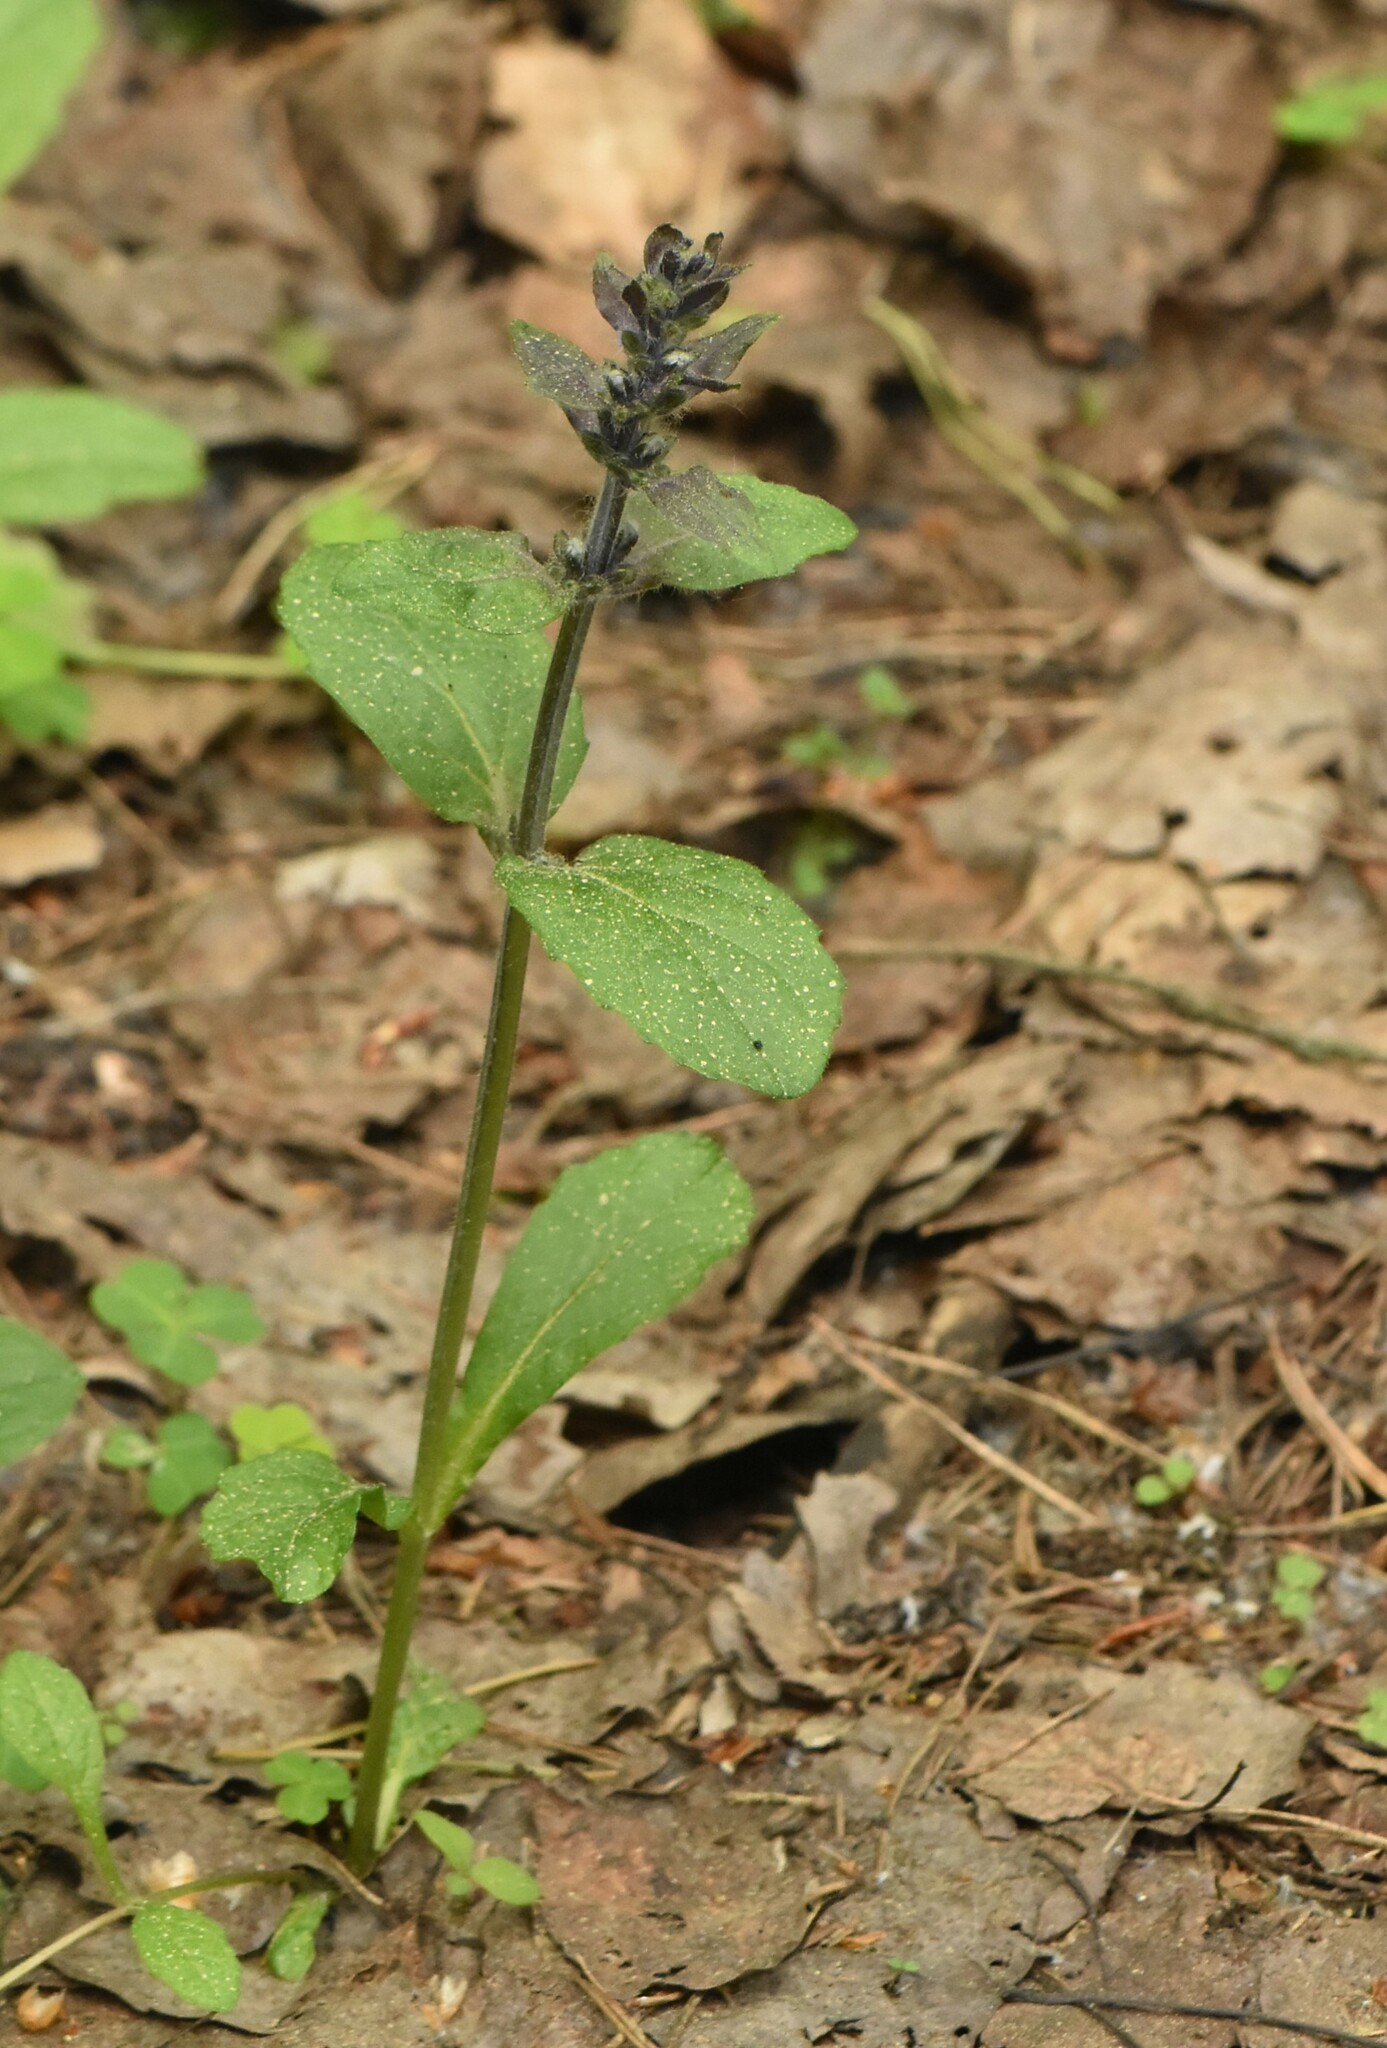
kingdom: Plantae
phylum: Tracheophyta
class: Magnoliopsida
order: Lamiales
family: Lamiaceae
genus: Ajuga
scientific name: Ajuga reptans
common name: Bugle
